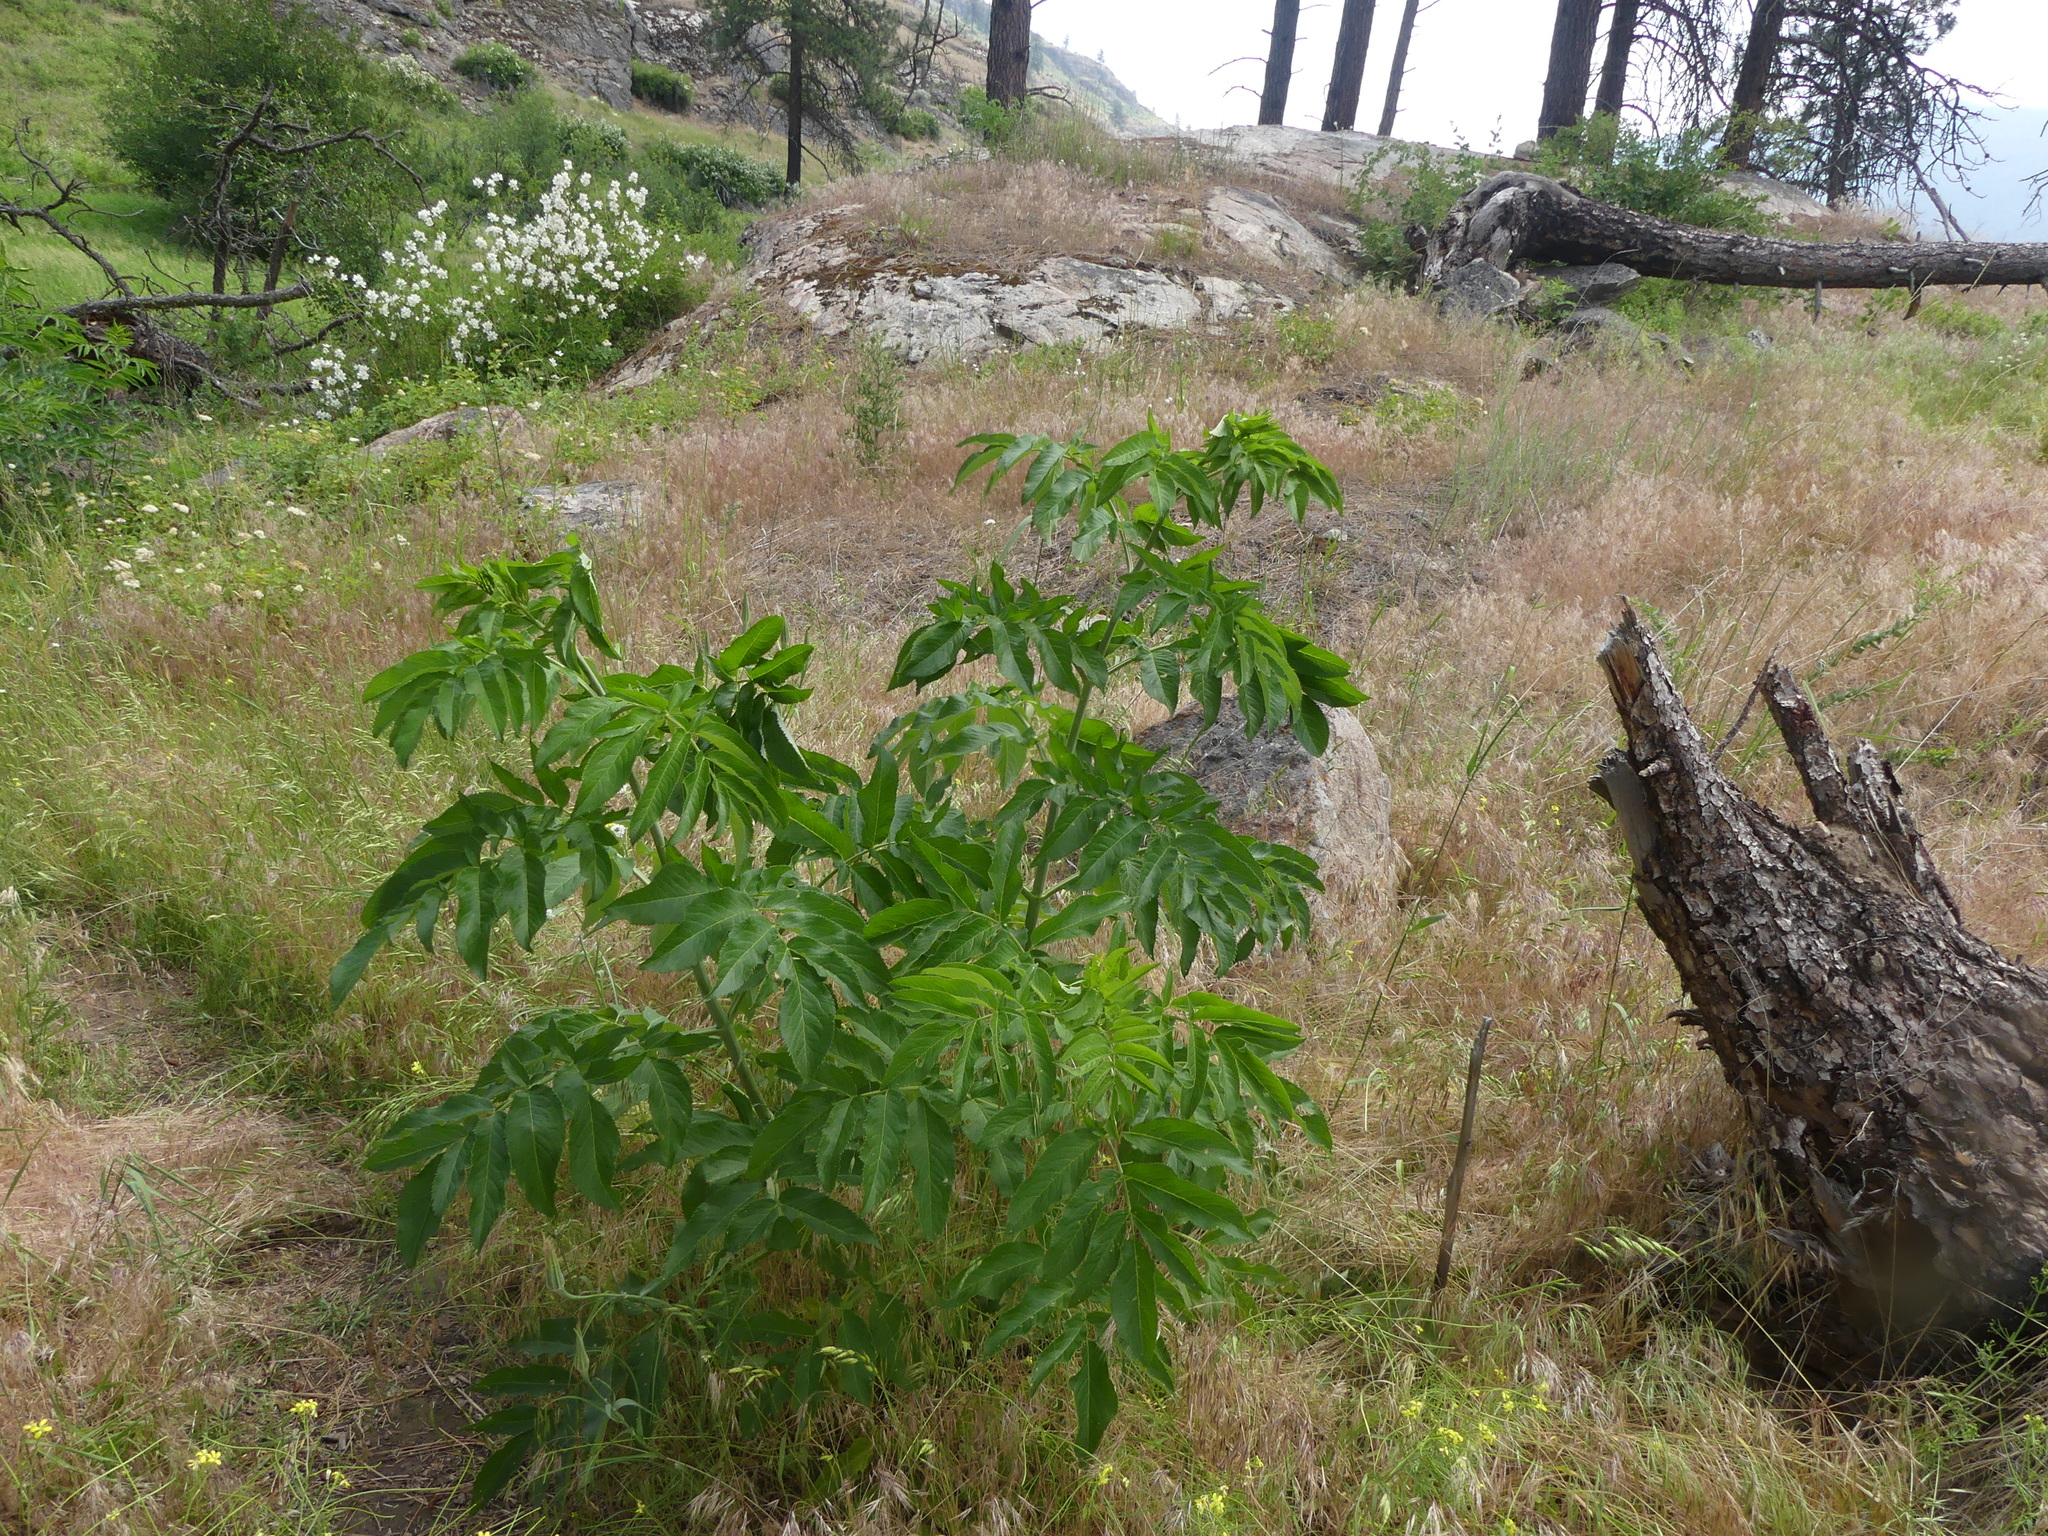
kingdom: Plantae
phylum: Tracheophyta
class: Magnoliopsida
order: Dipsacales
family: Viburnaceae
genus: Sambucus
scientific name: Sambucus cerulea
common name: Blue elder
